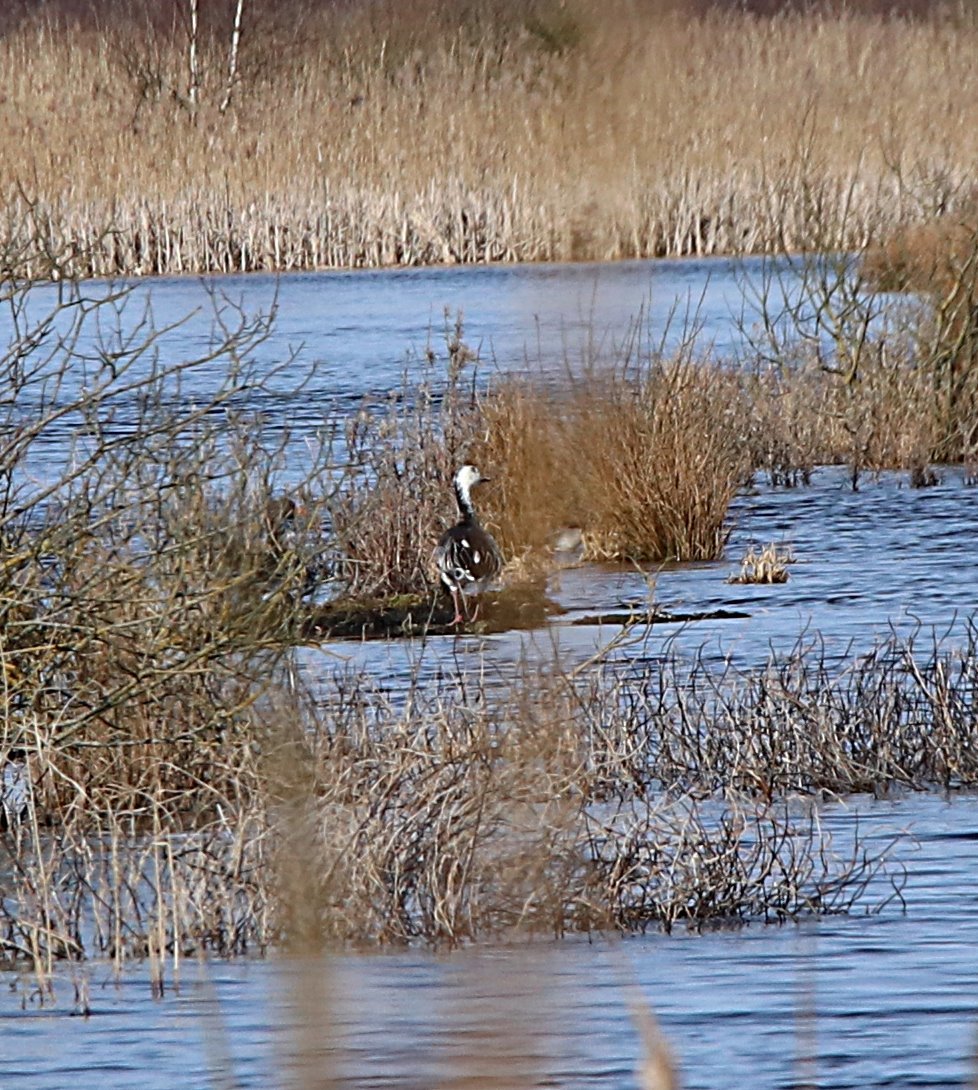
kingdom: Animalia
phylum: Chordata
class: Aves
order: Anseriformes
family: Anatidae
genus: Anser
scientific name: Anser caerulescens
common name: Snow goose
